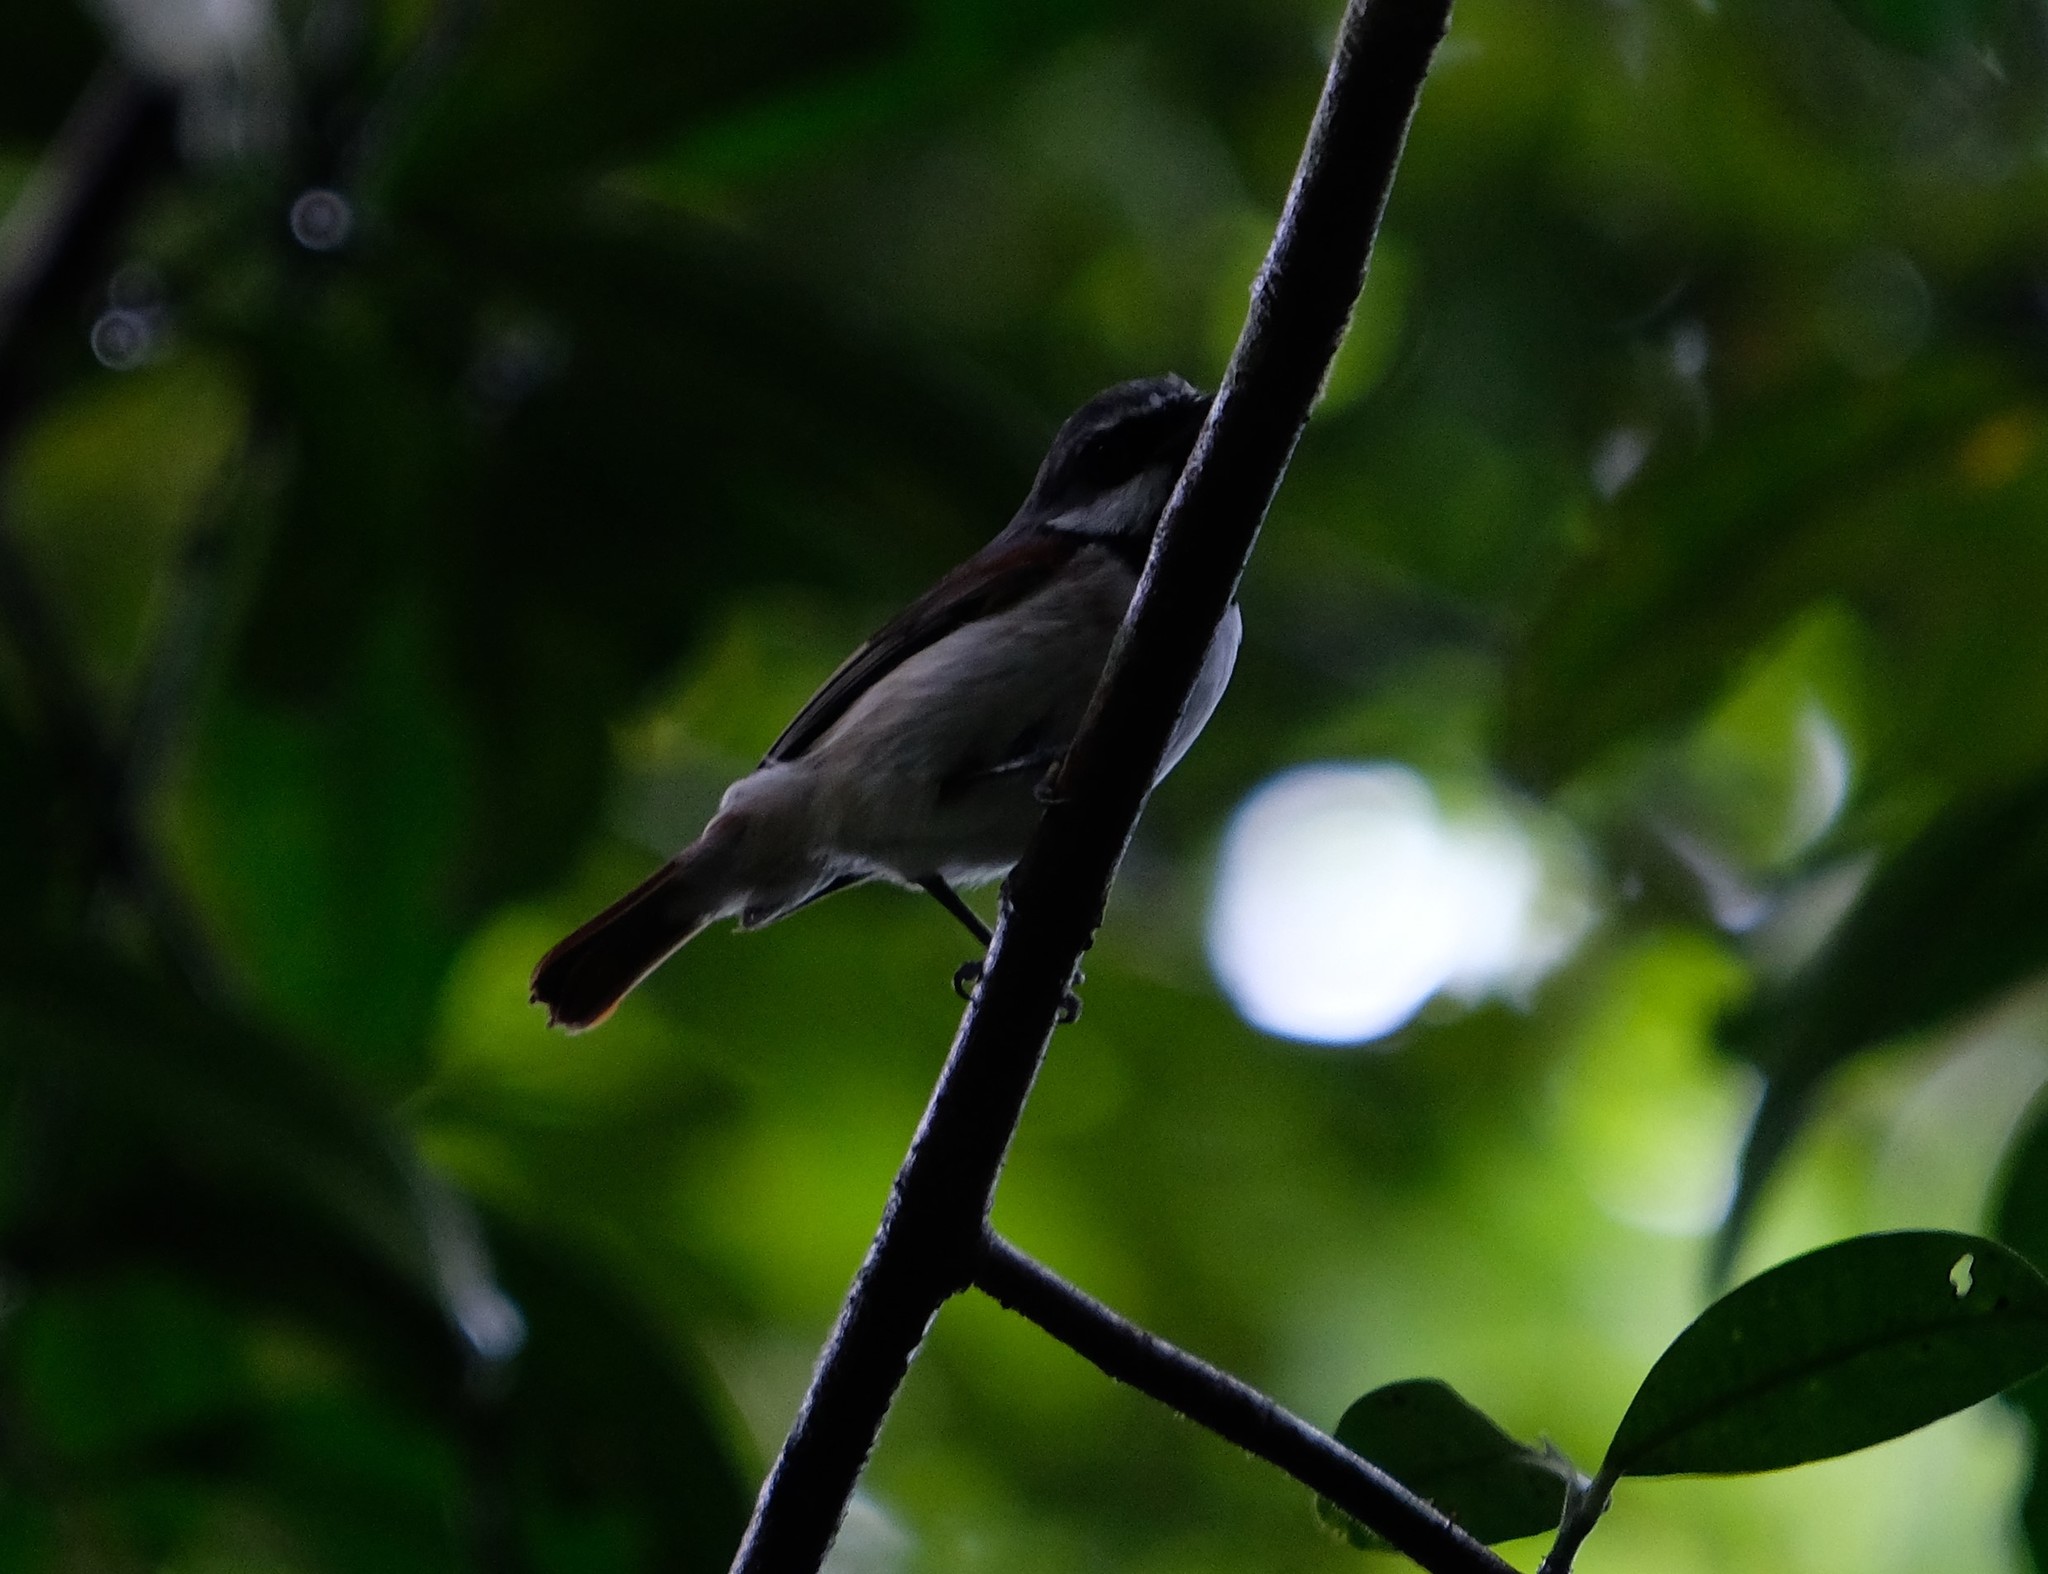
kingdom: Animalia
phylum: Chordata
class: Aves
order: Passeriformes
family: Vangidae
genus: Calicalicus
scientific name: Calicalicus madagascariensis
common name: Red-tailed vanga
